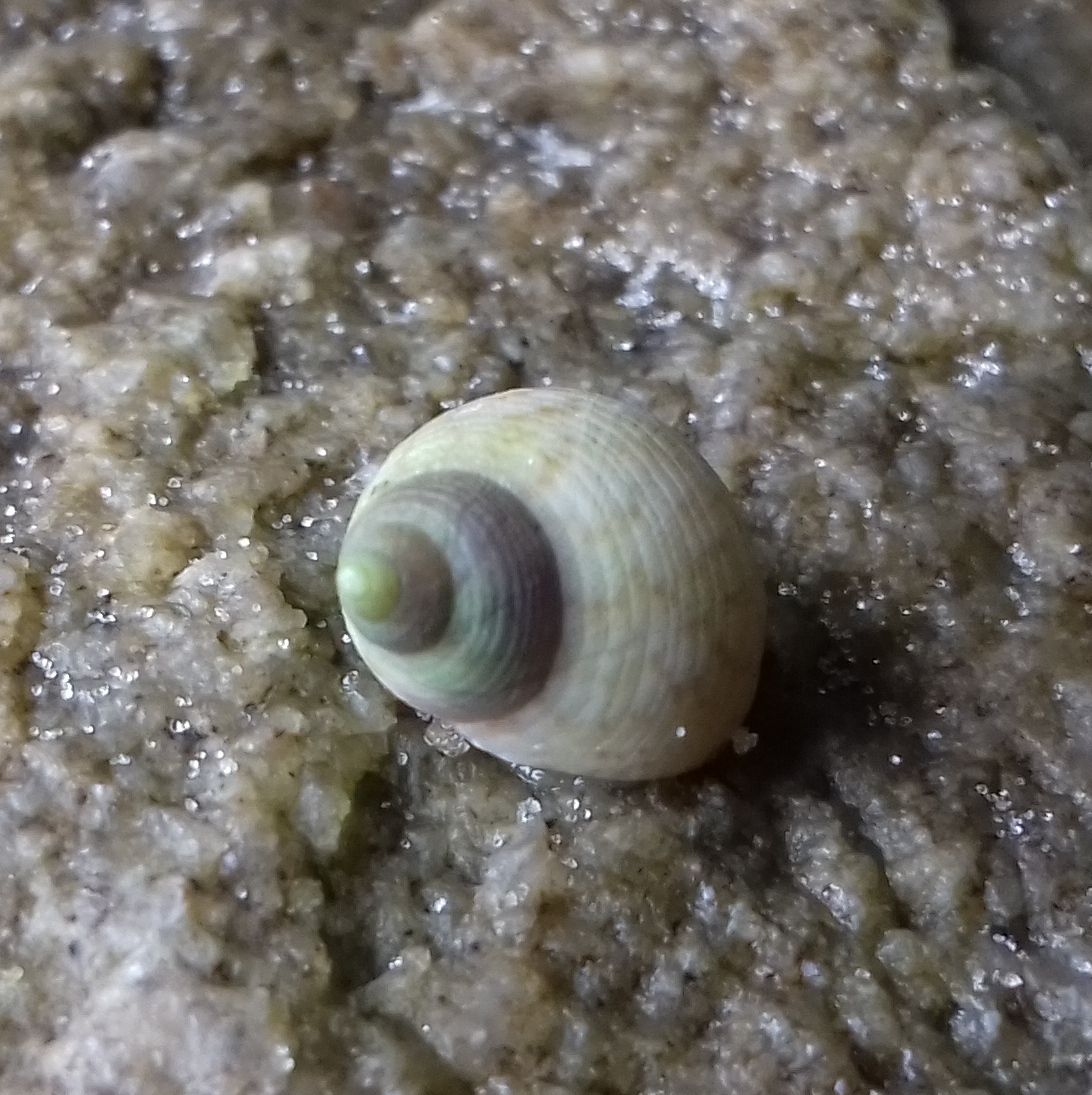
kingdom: Animalia
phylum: Mollusca
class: Gastropoda
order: Littorinimorpha
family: Littorinidae
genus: Littoraria
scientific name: Littoraria flava
